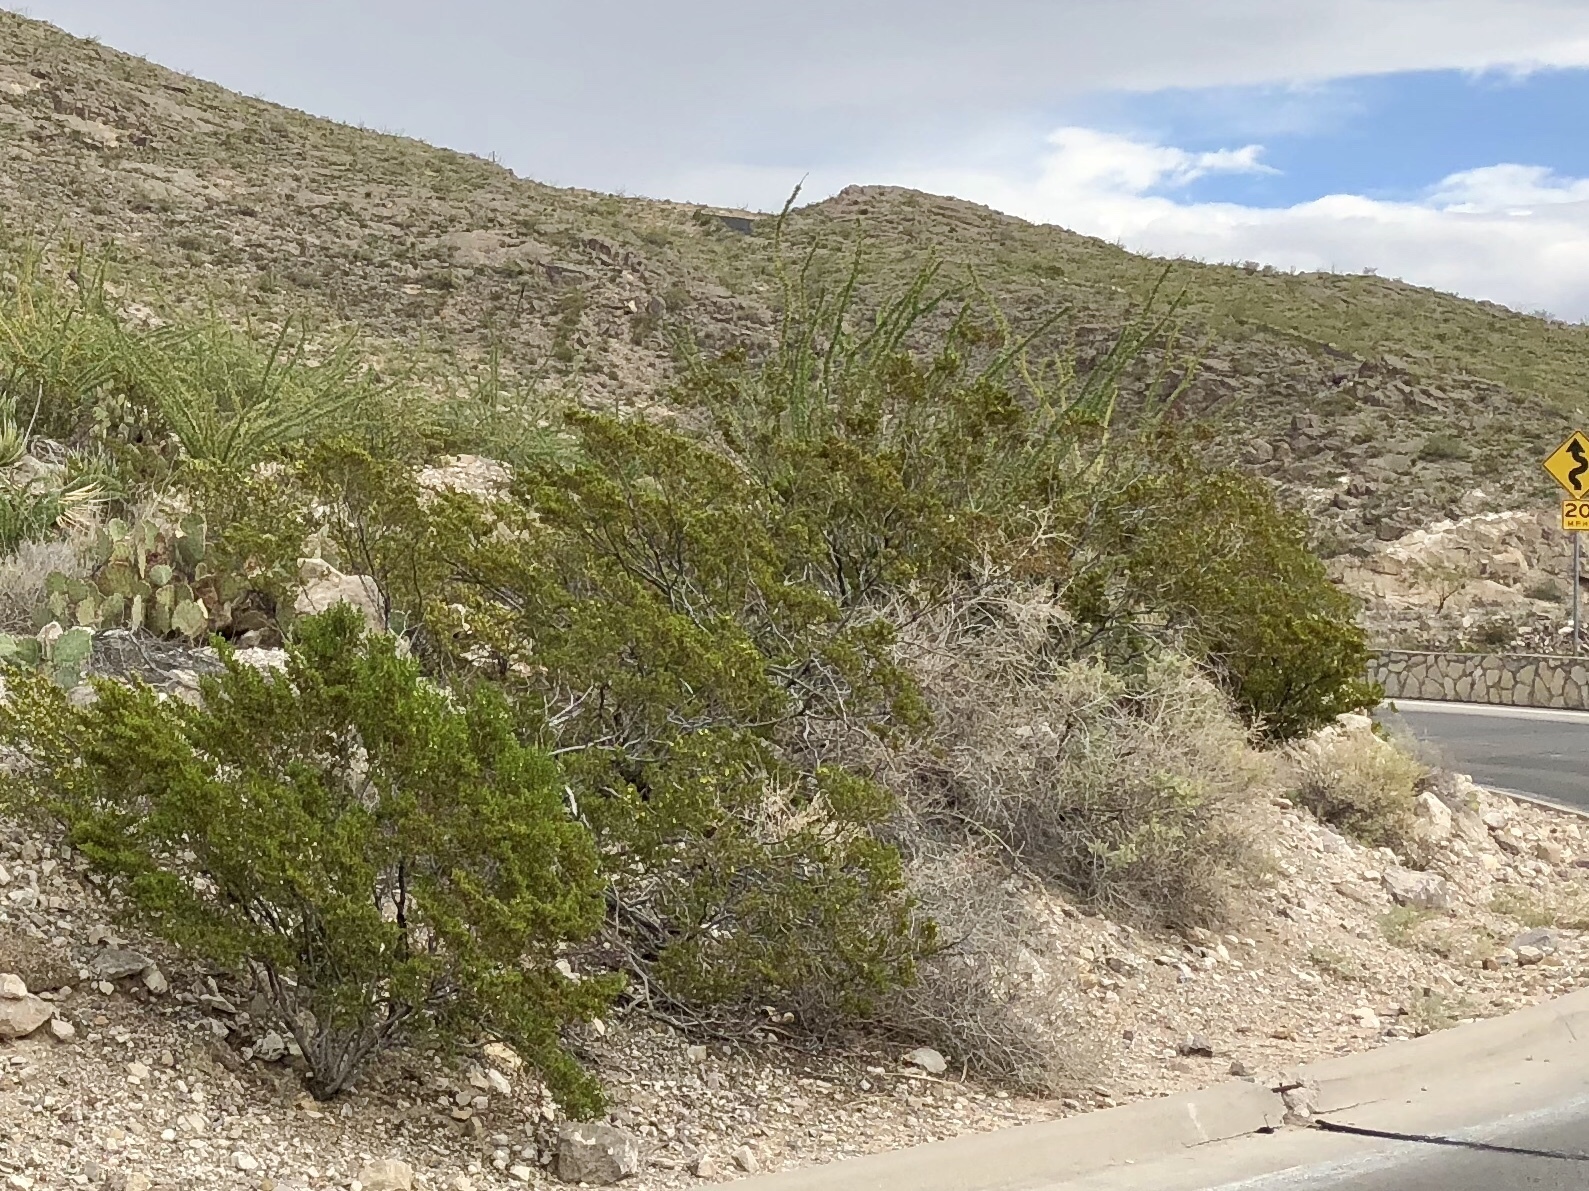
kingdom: Plantae
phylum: Tracheophyta
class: Magnoliopsida
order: Zygophyllales
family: Zygophyllaceae
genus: Larrea
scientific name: Larrea tridentata
